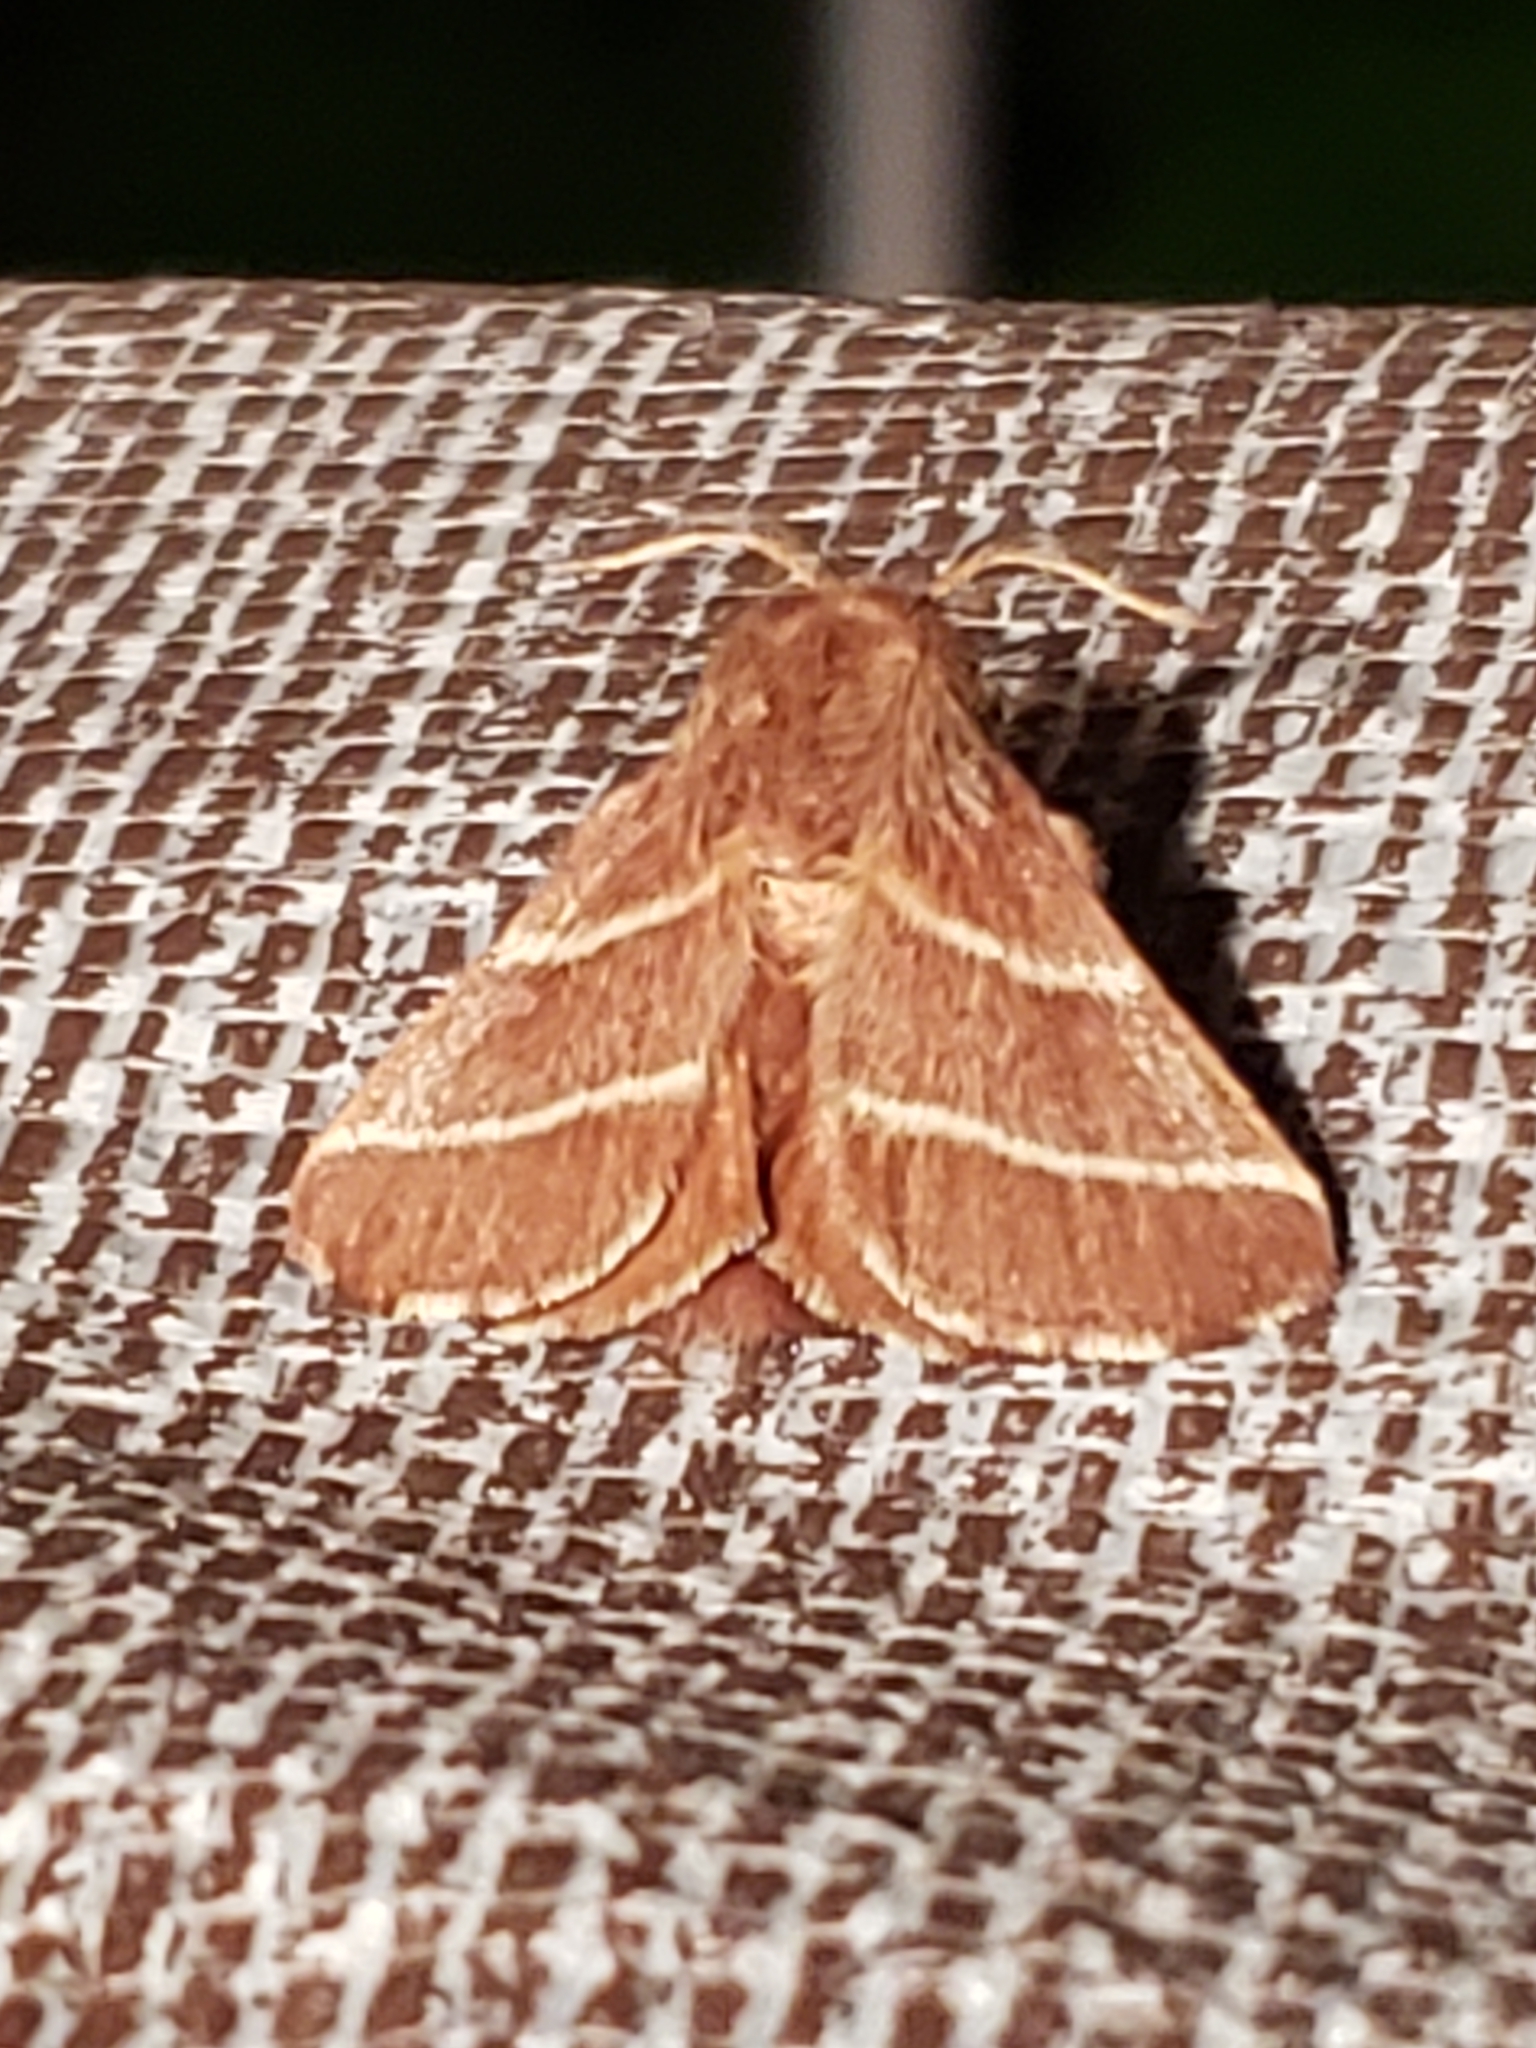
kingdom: Animalia
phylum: Arthropoda
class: Insecta
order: Lepidoptera
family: Lasiocampidae
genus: Malacosoma
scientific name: Malacosoma americana
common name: Eastern tent caterpillar moth
